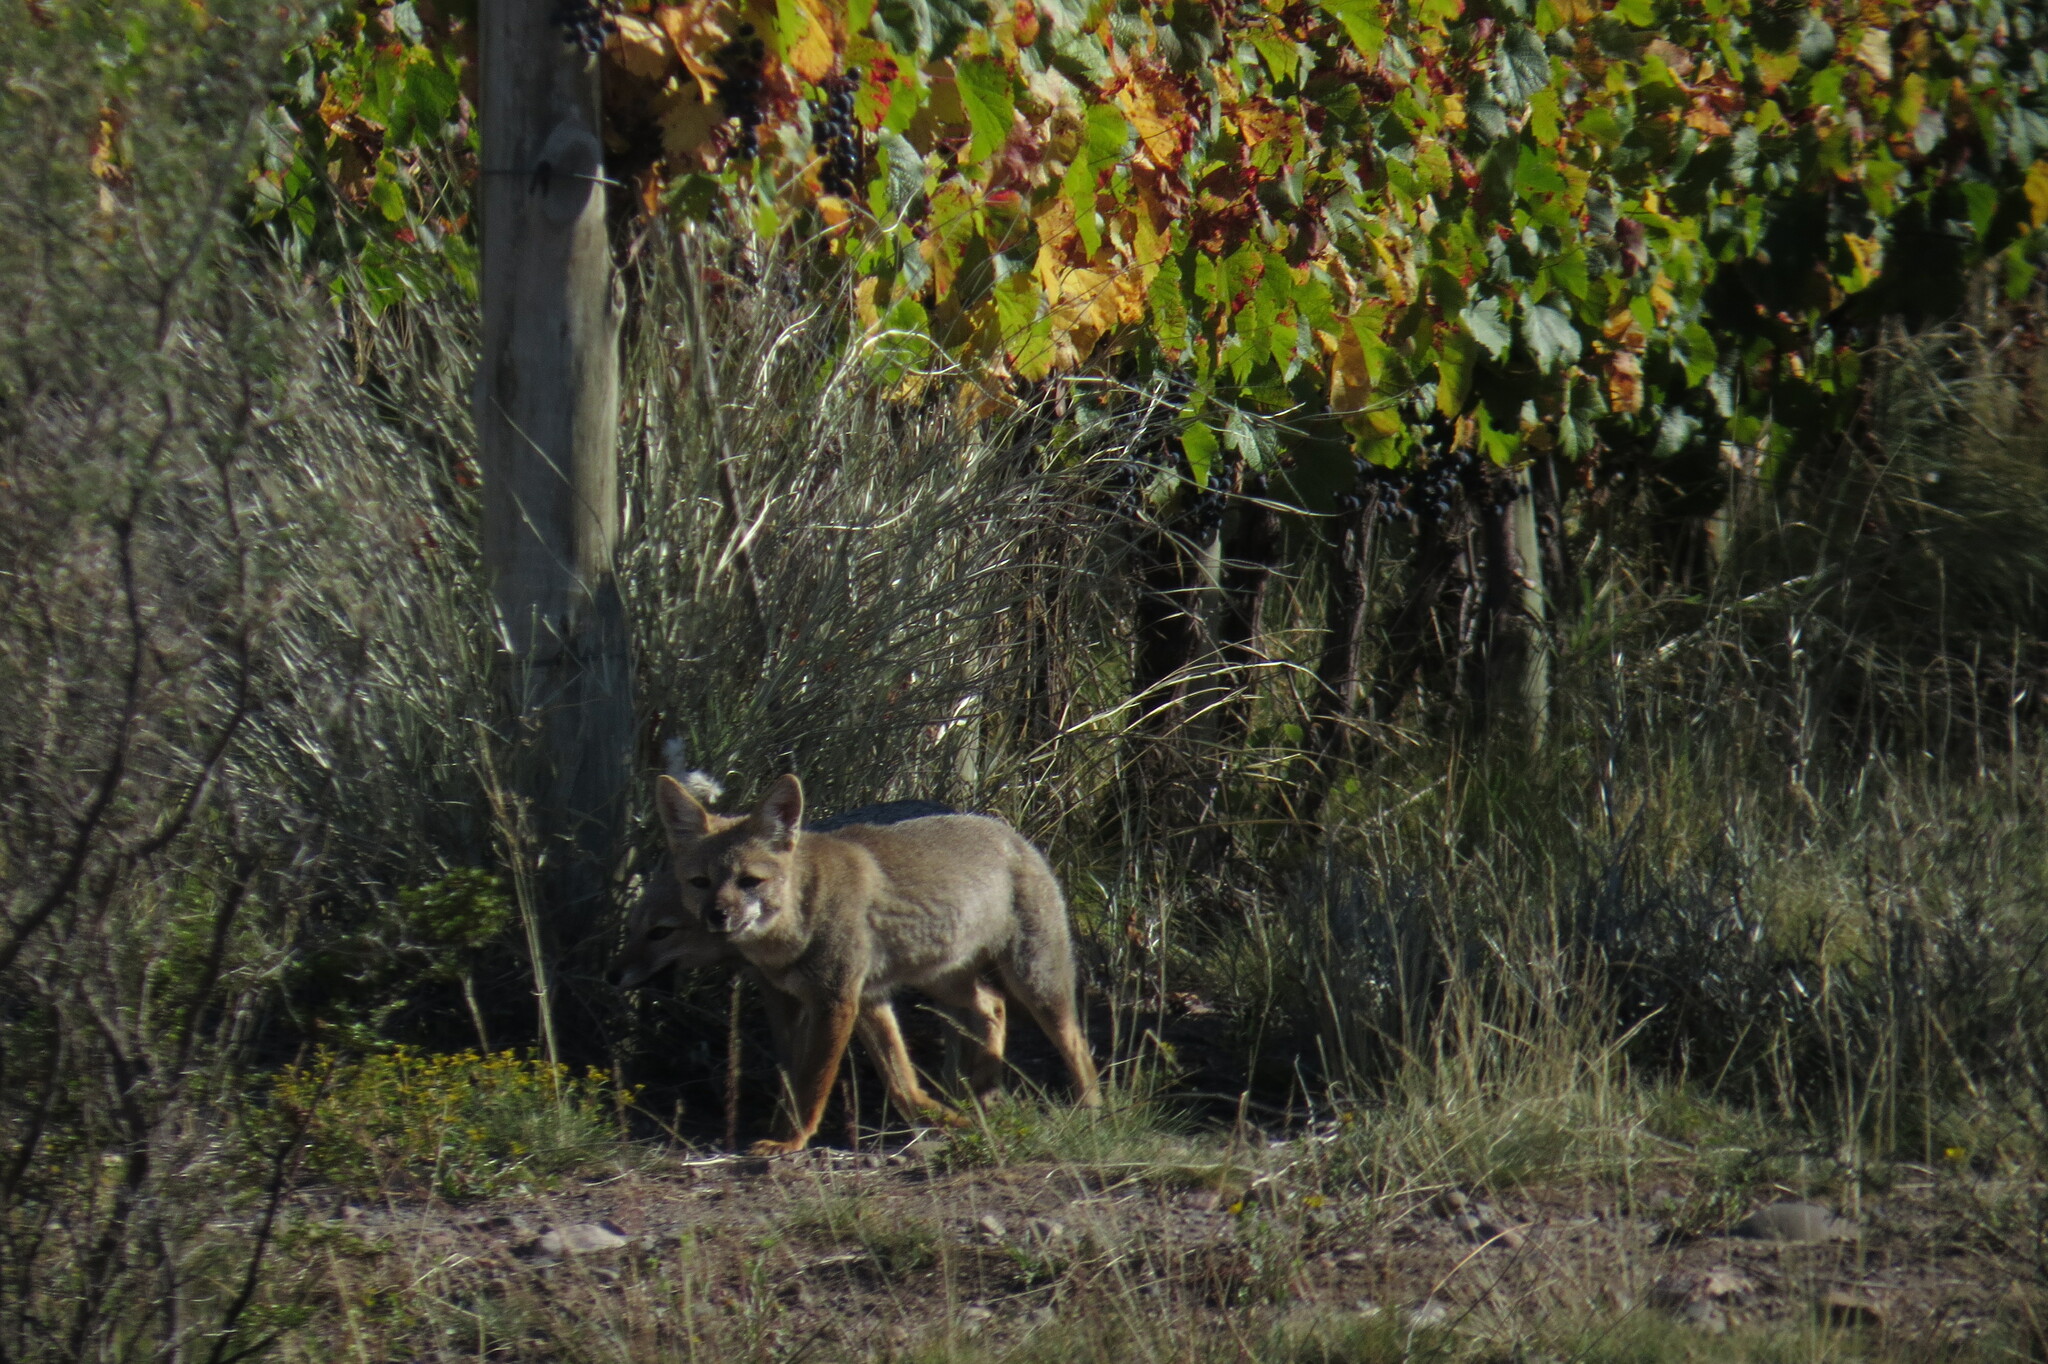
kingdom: Animalia
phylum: Chordata
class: Mammalia
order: Carnivora
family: Canidae
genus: Lycalopex
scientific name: Lycalopex gymnocercus
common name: Pampas fox
